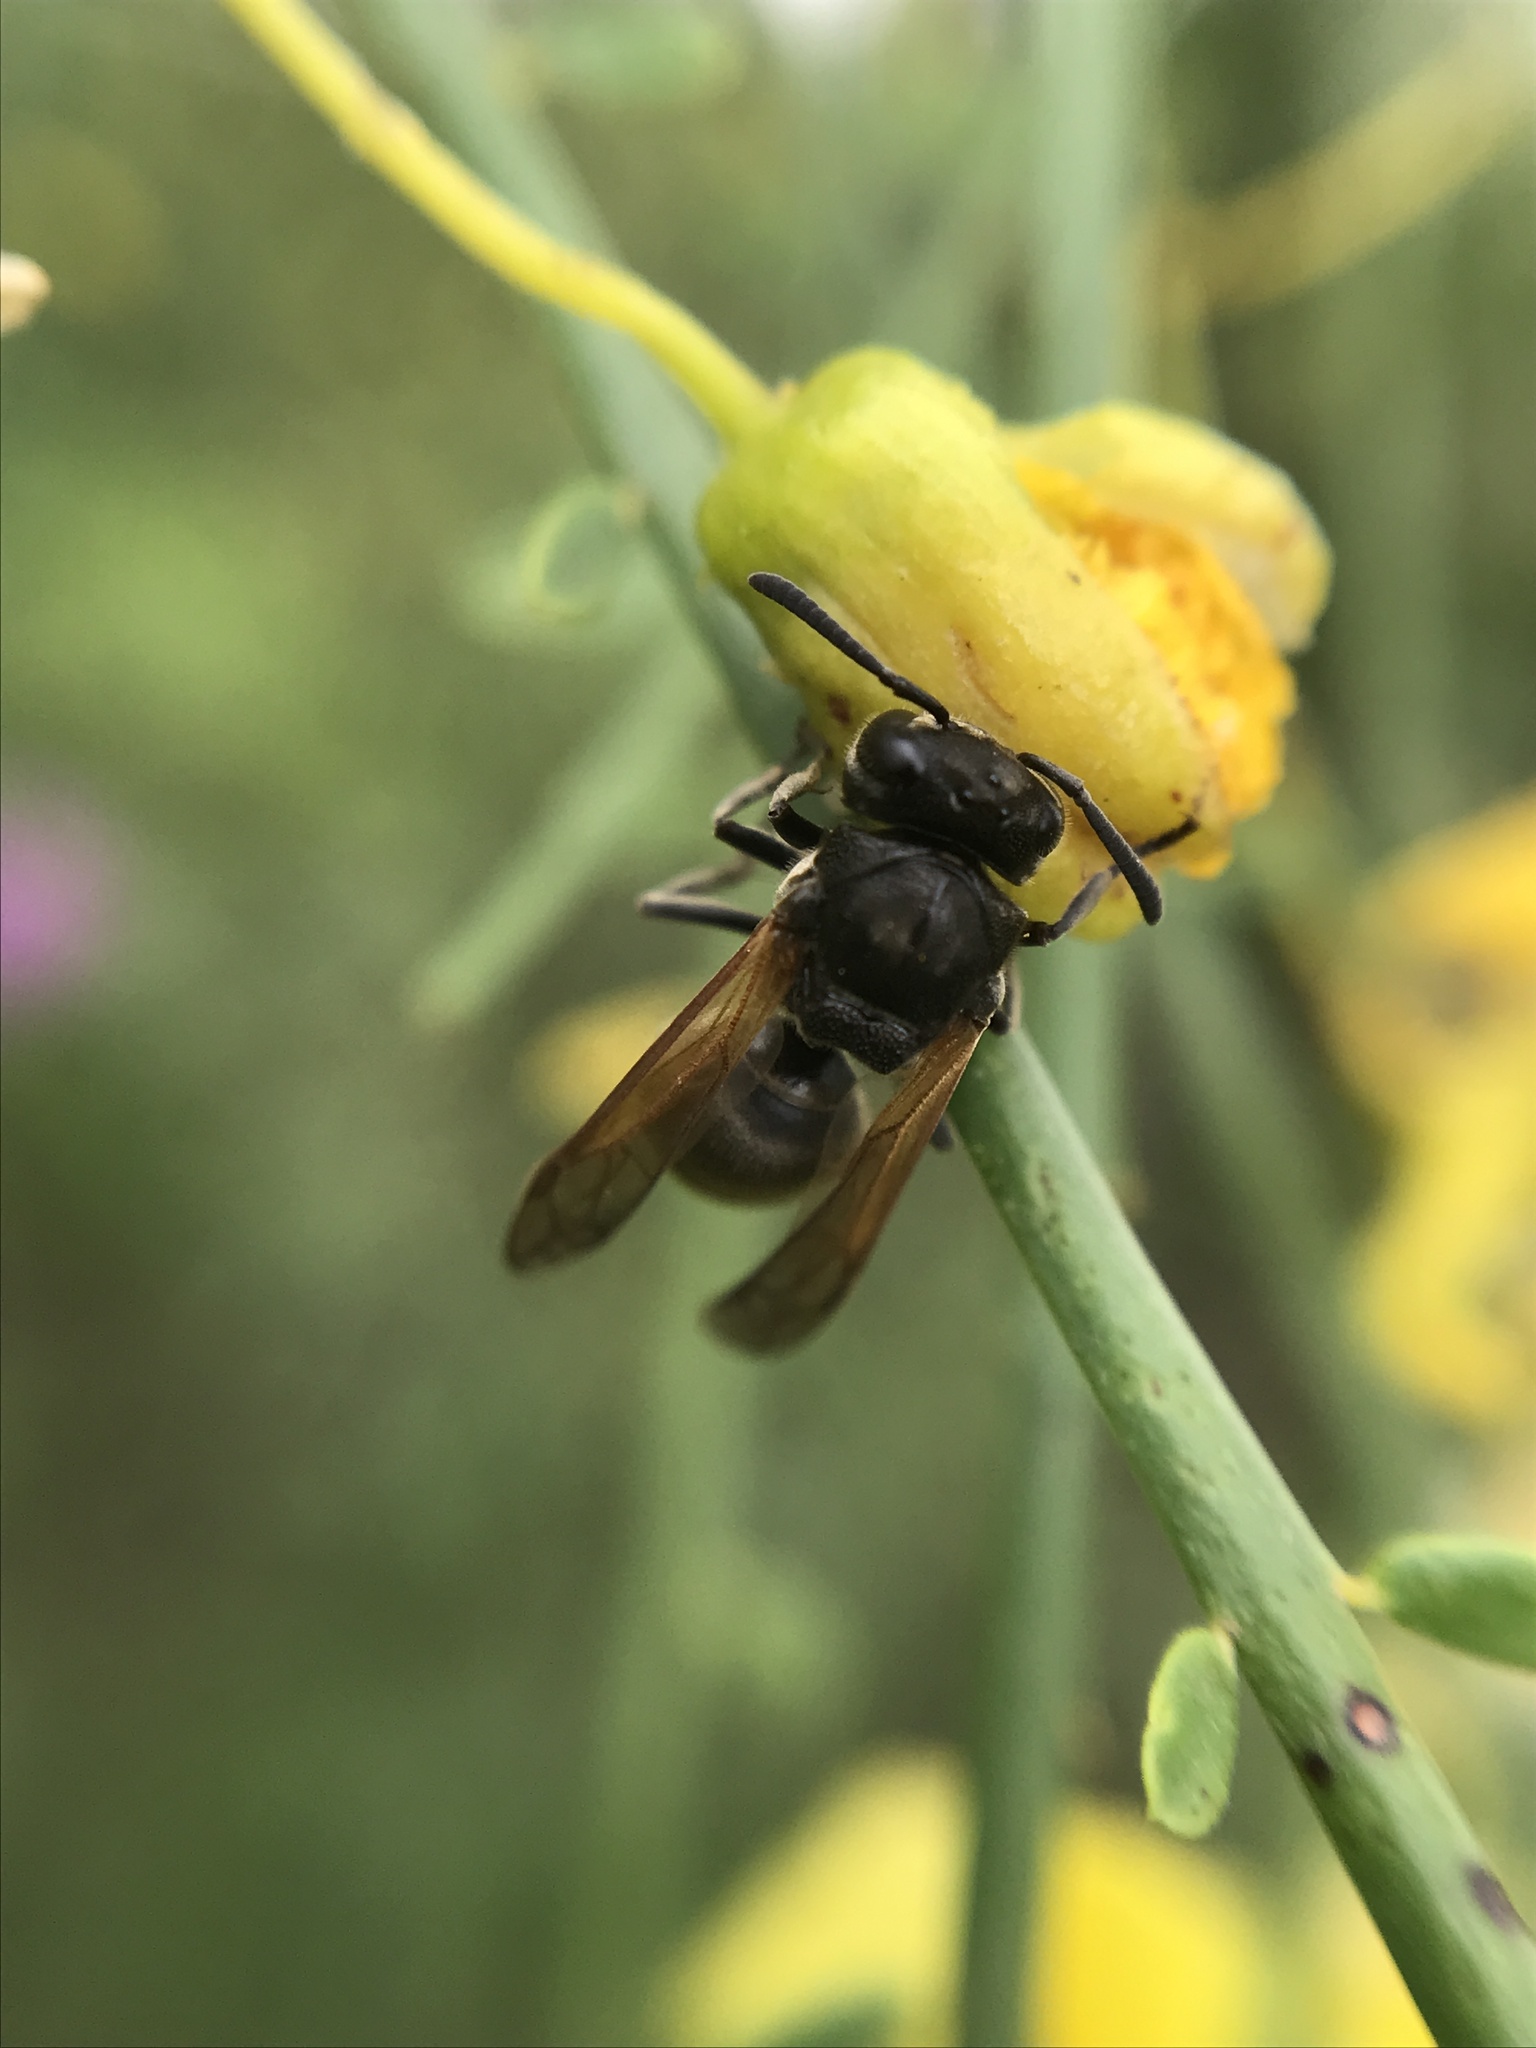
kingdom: Animalia
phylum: Arthropoda
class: Insecta
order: Hymenoptera
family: Vespidae
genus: Brachygastra
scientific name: Brachygastra lecheguana
